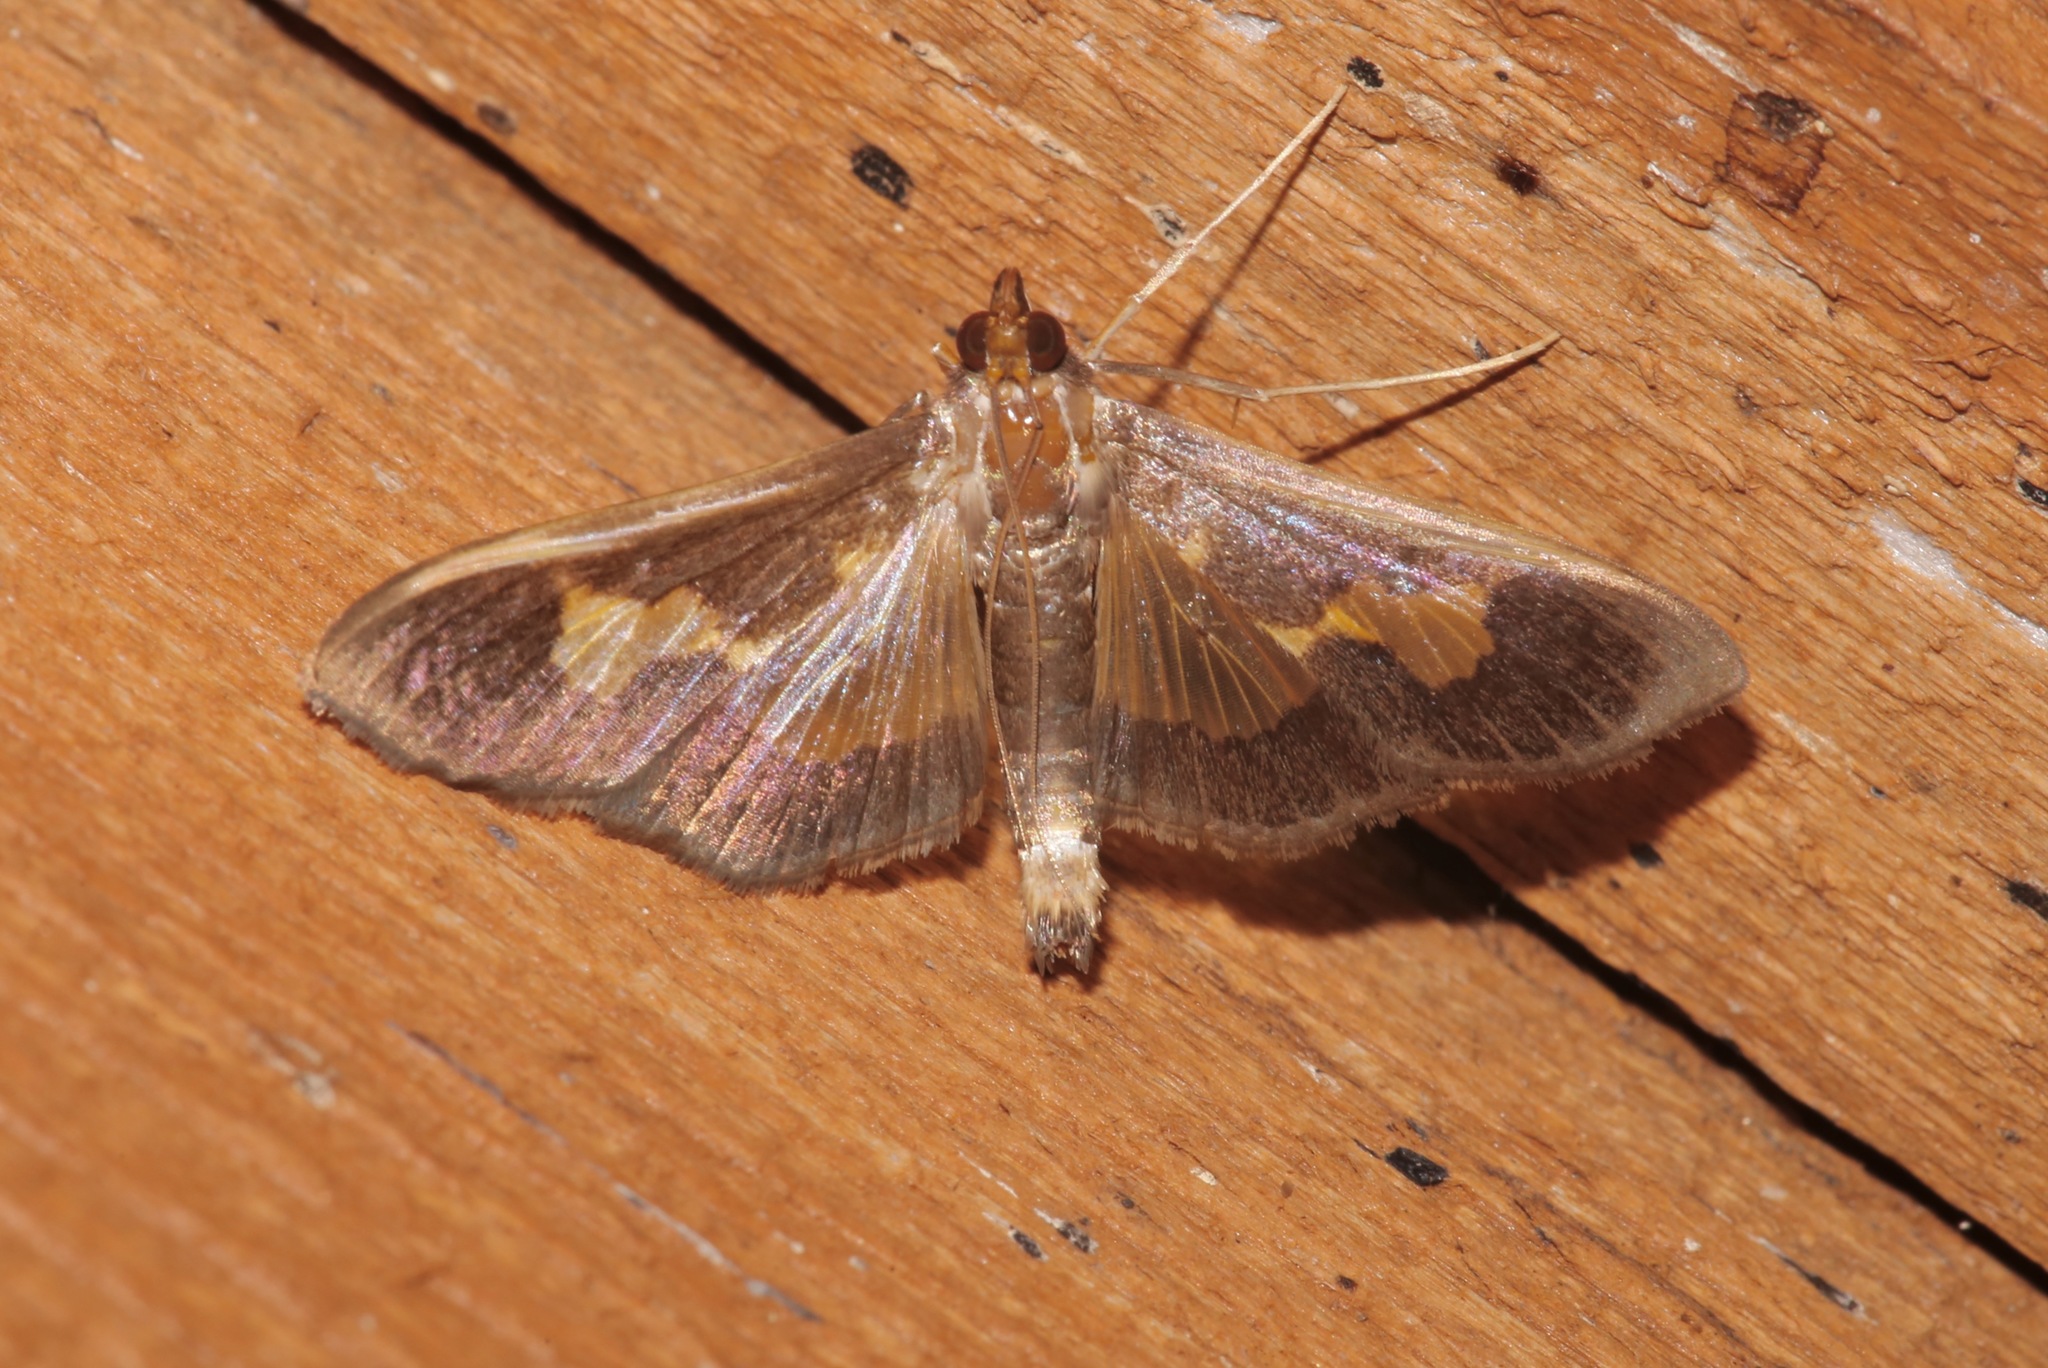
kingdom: Animalia
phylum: Arthropoda
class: Insecta
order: Lepidoptera
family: Crambidae
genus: Cryptographis
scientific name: Cryptographis nitidalis
